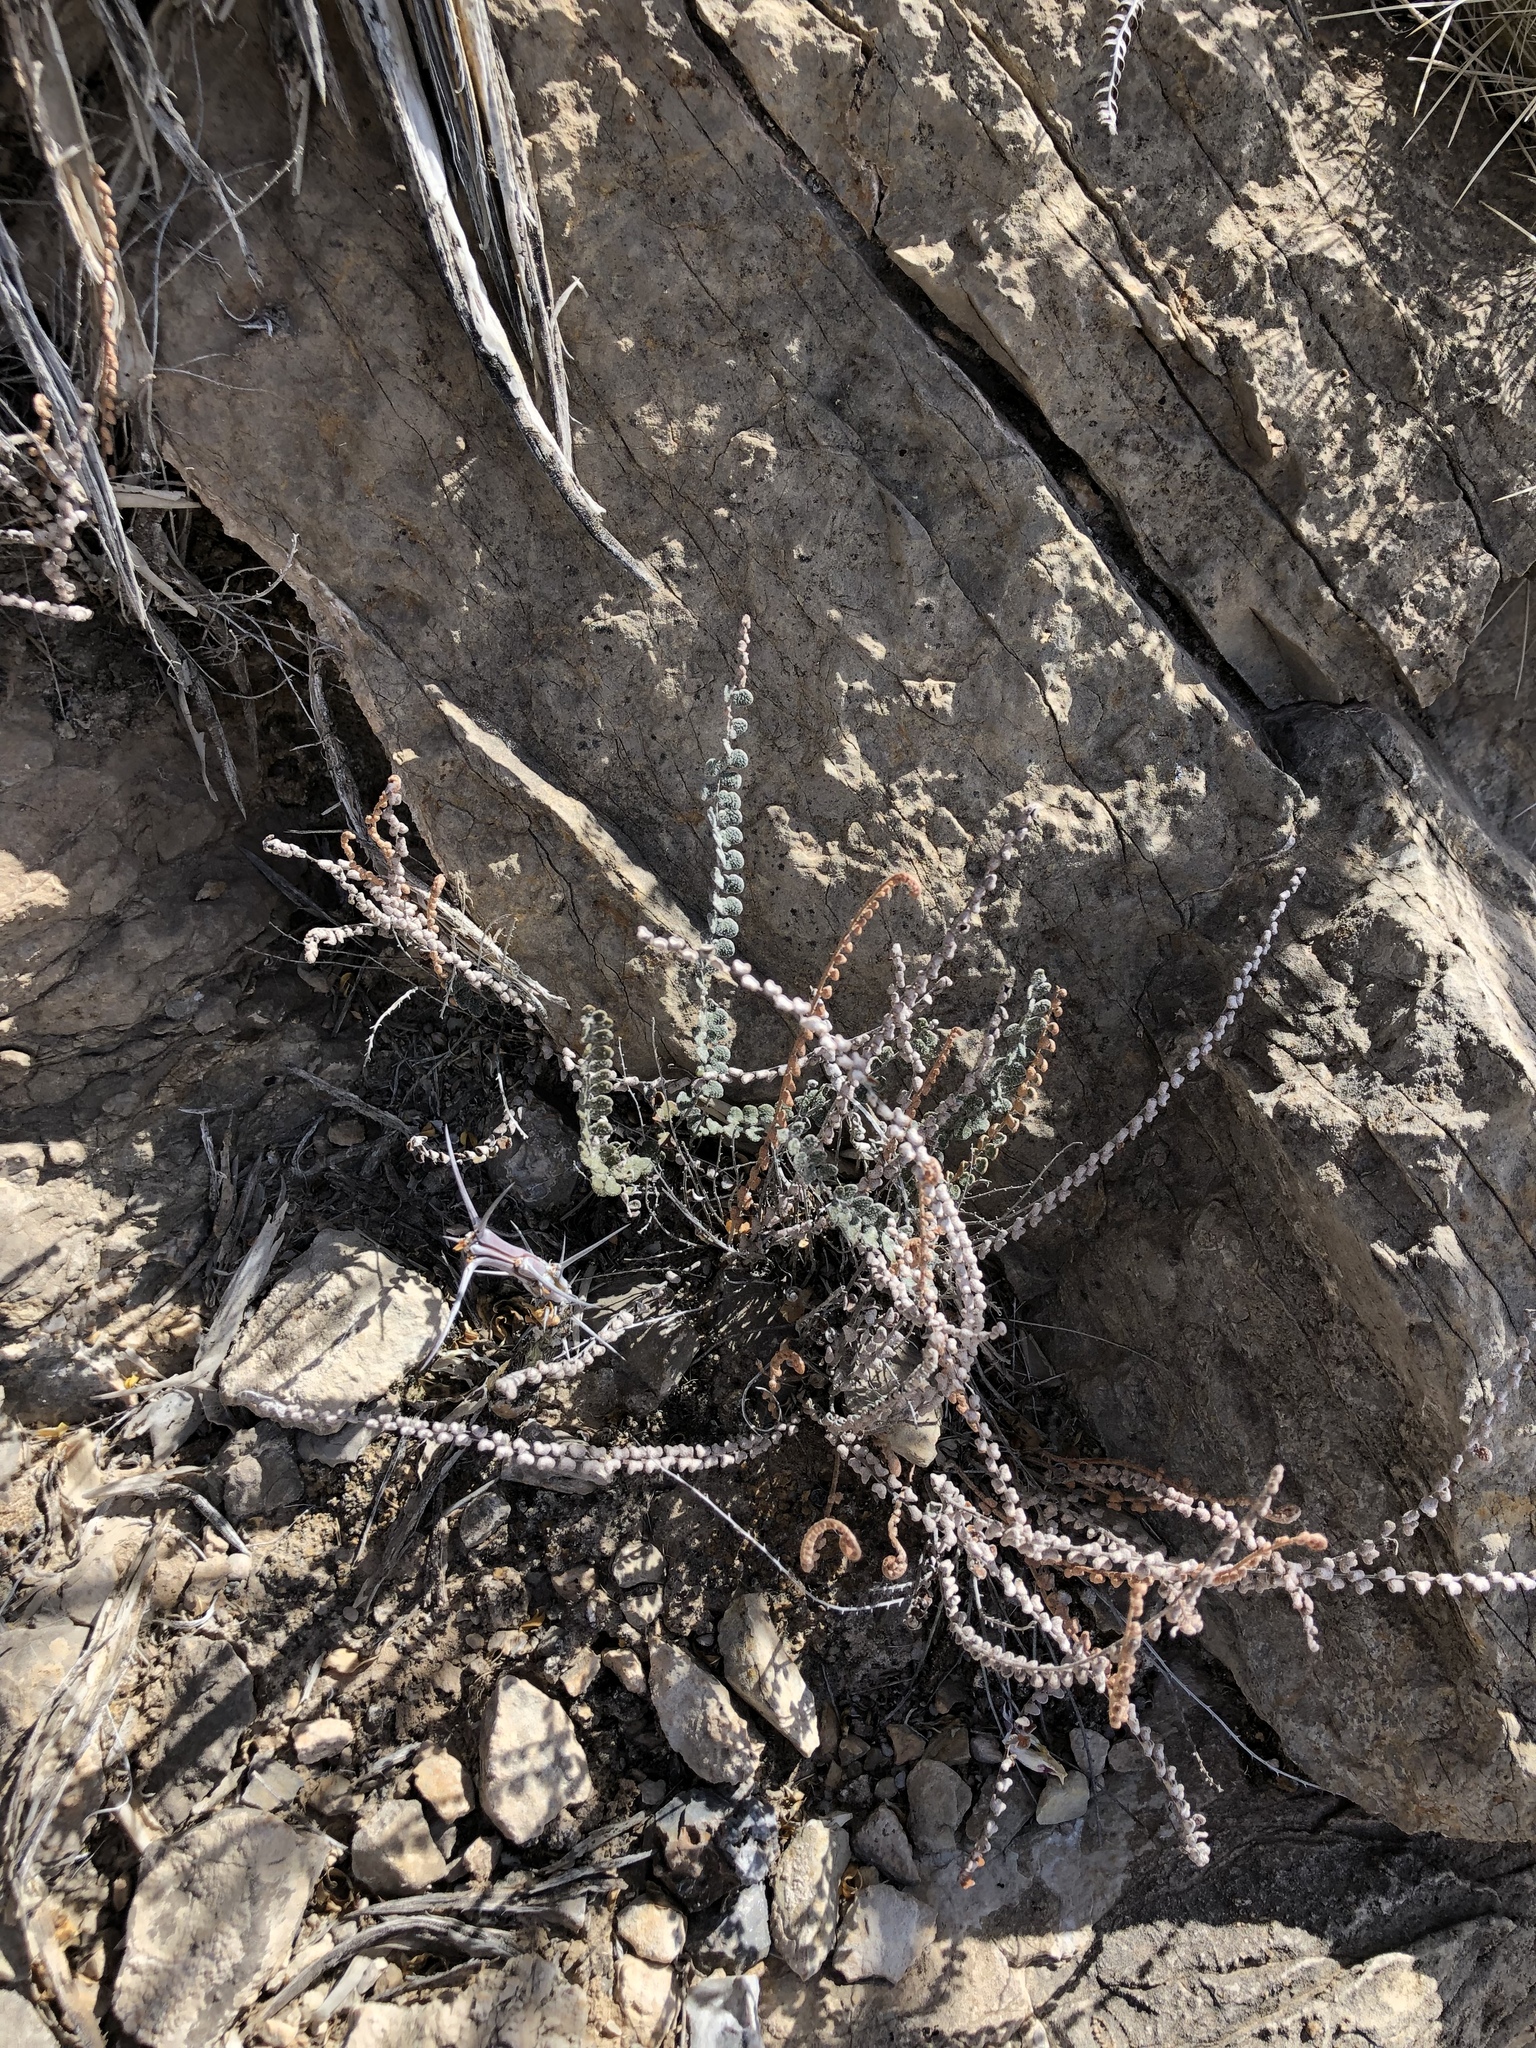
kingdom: Plantae
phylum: Tracheophyta
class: Polypodiopsida
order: Polypodiales
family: Pteridaceae
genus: Astrolepis
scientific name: Astrolepis cochisensis
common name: Scaly cloak fern
